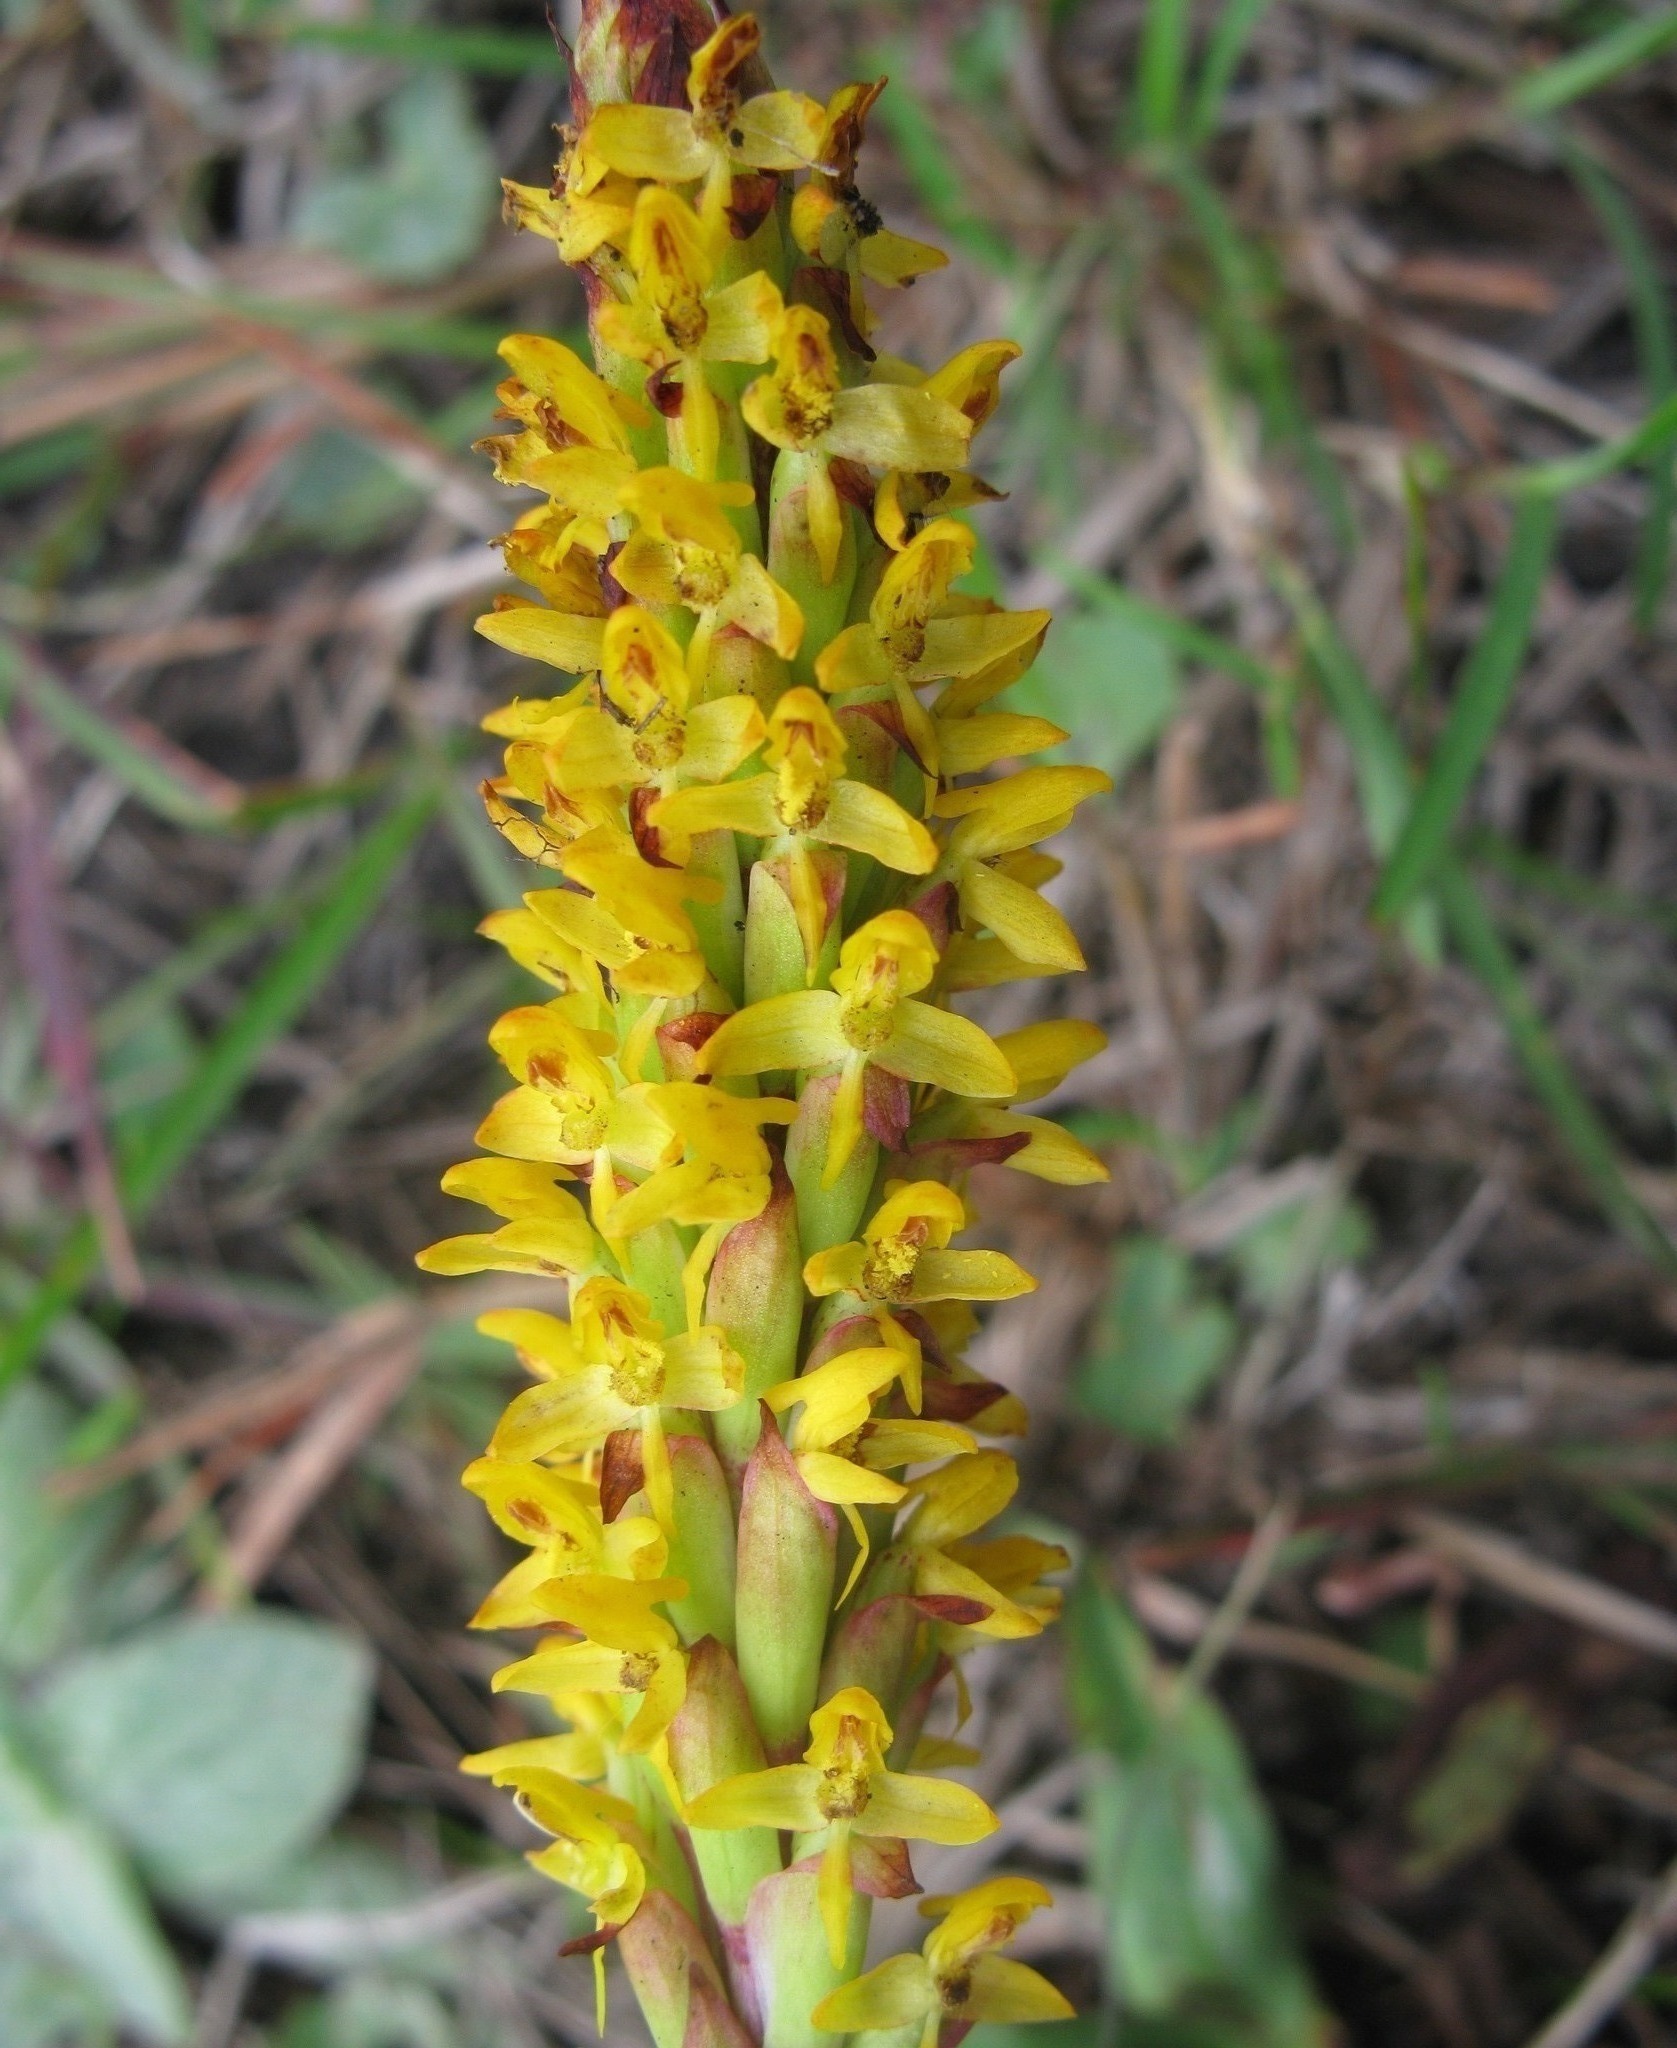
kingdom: Plantae
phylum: Tracheophyta
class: Liliopsida
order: Asparagales
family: Orchidaceae
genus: Disa
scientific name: Disa woodii
